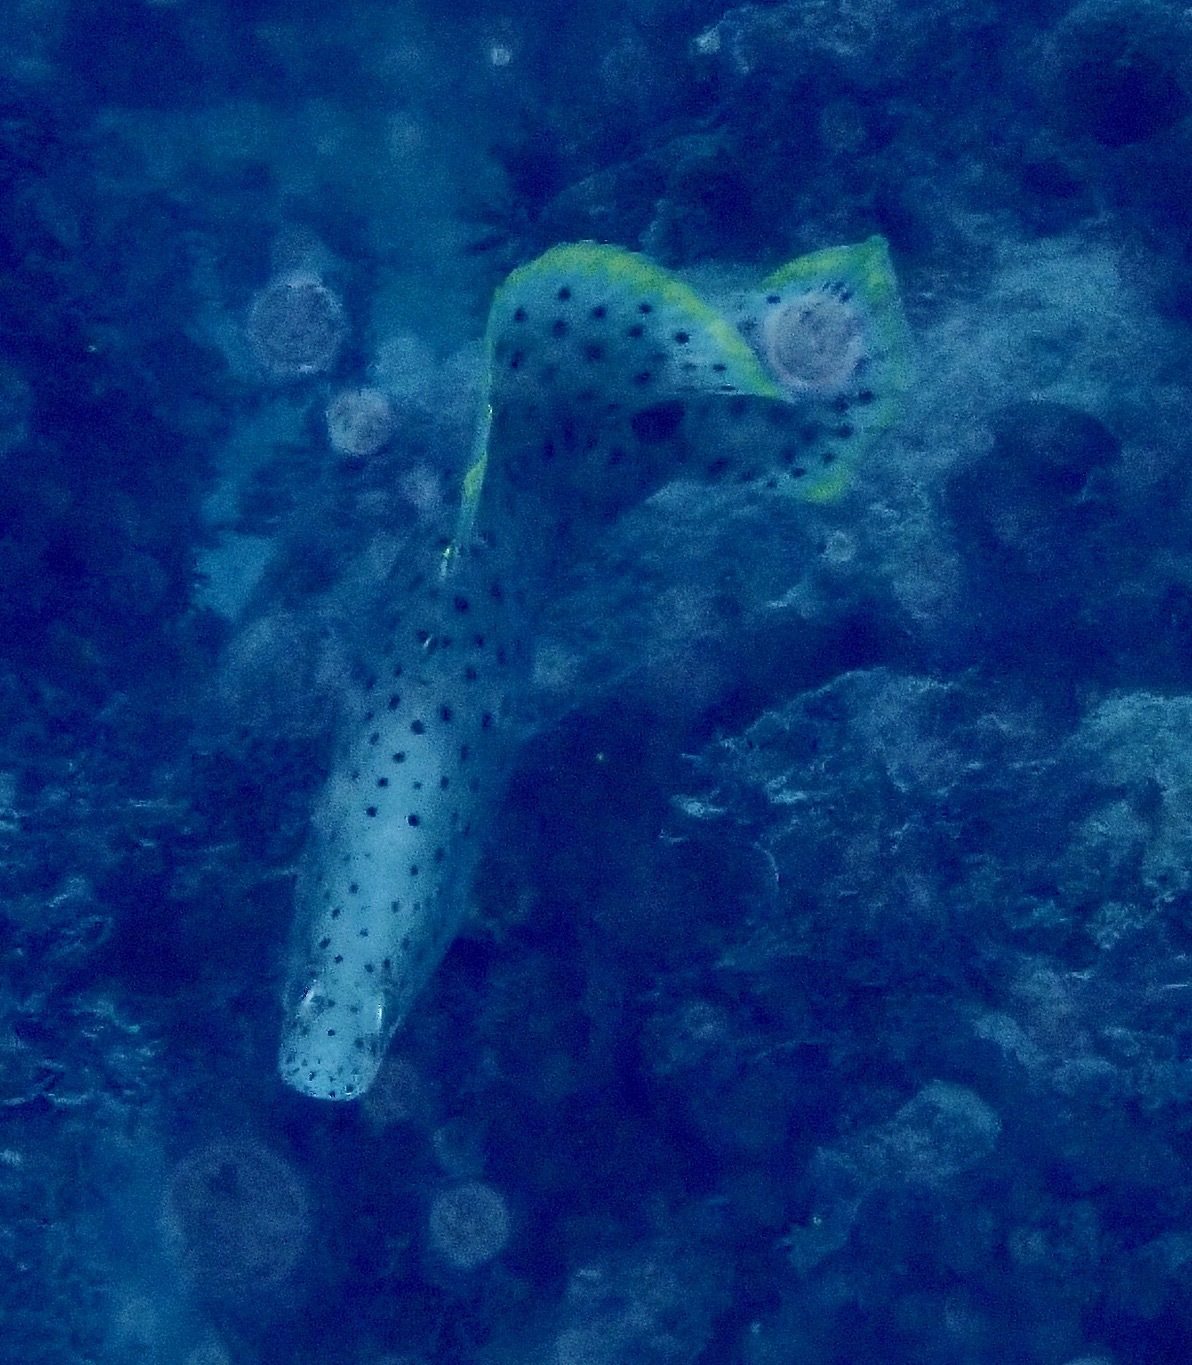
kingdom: Animalia
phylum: Chordata
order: Perciformes
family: Serranidae
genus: Cromileptes
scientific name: Cromileptes altivelis
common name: Humpback grouper
